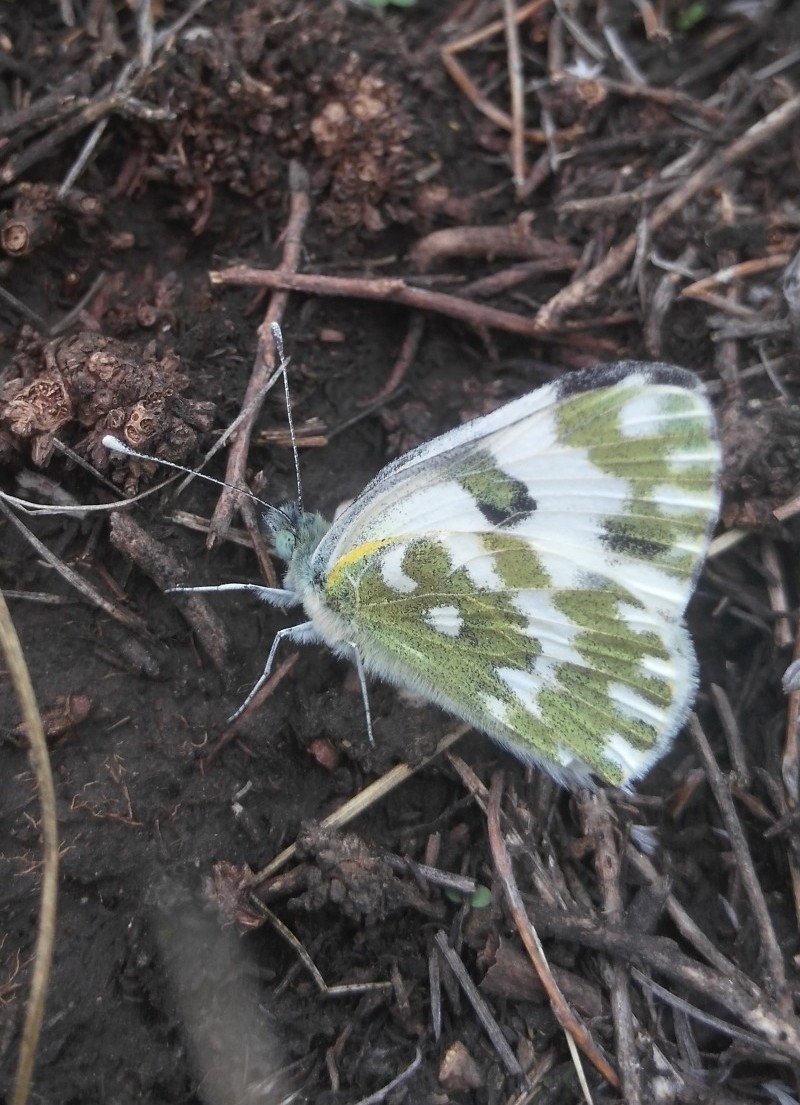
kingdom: Animalia
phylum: Arthropoda
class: Insecta
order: Lepidoptera
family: Pieridae
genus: Pontia
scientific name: Pontia edusa
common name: Eastern bath white
